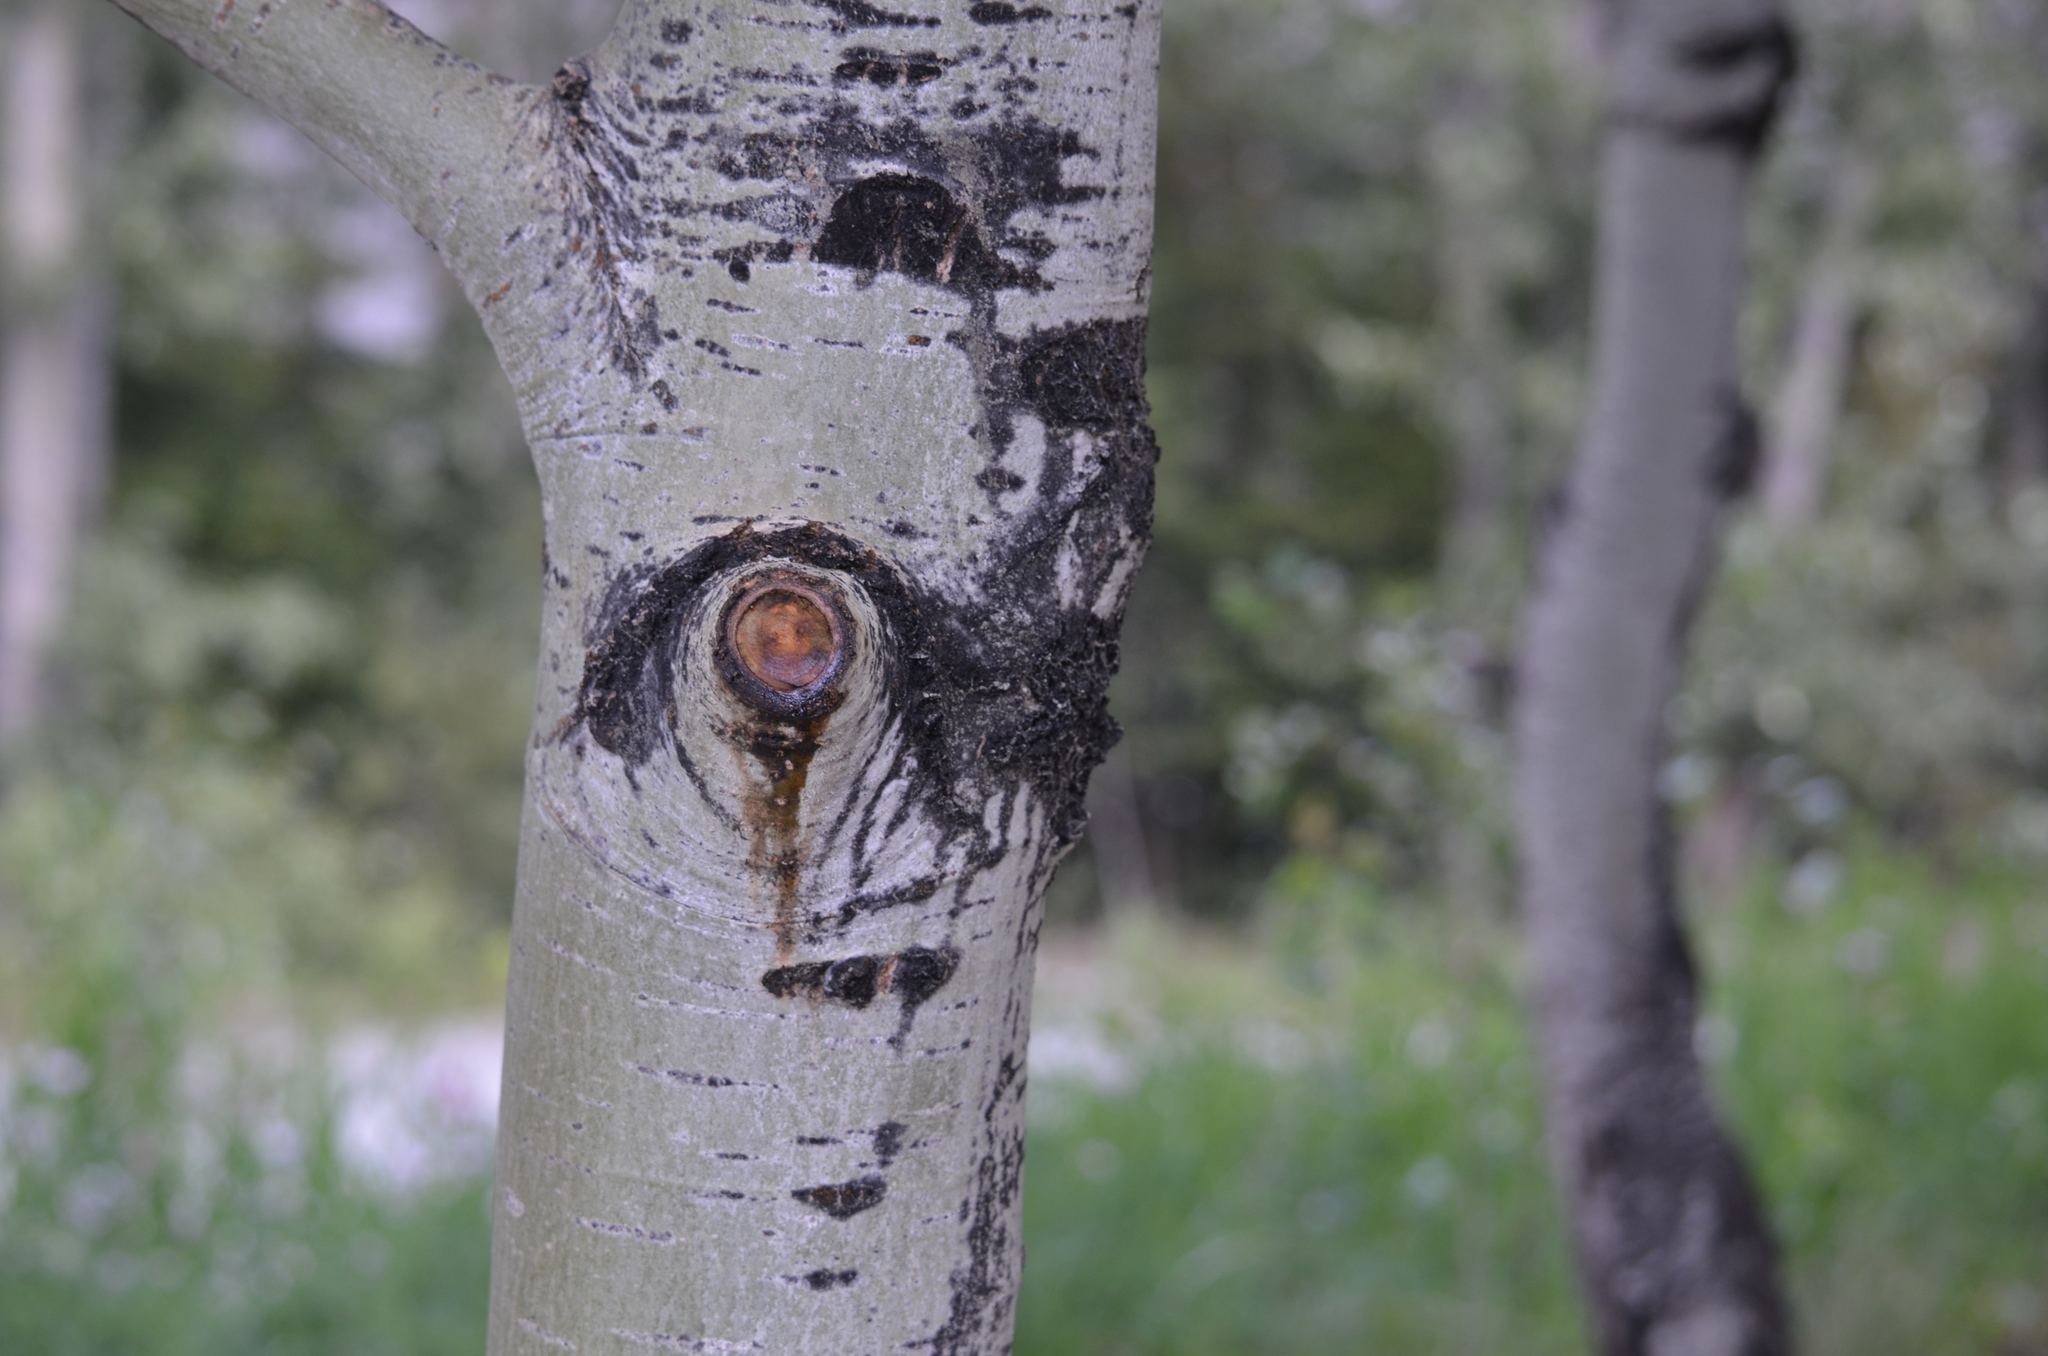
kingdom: Plantae
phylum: Tracheophyta
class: Magnoliopsida
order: Malpighiales
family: Salicaceae
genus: Populus
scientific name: Populus tremuloides
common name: Quaking aspen
